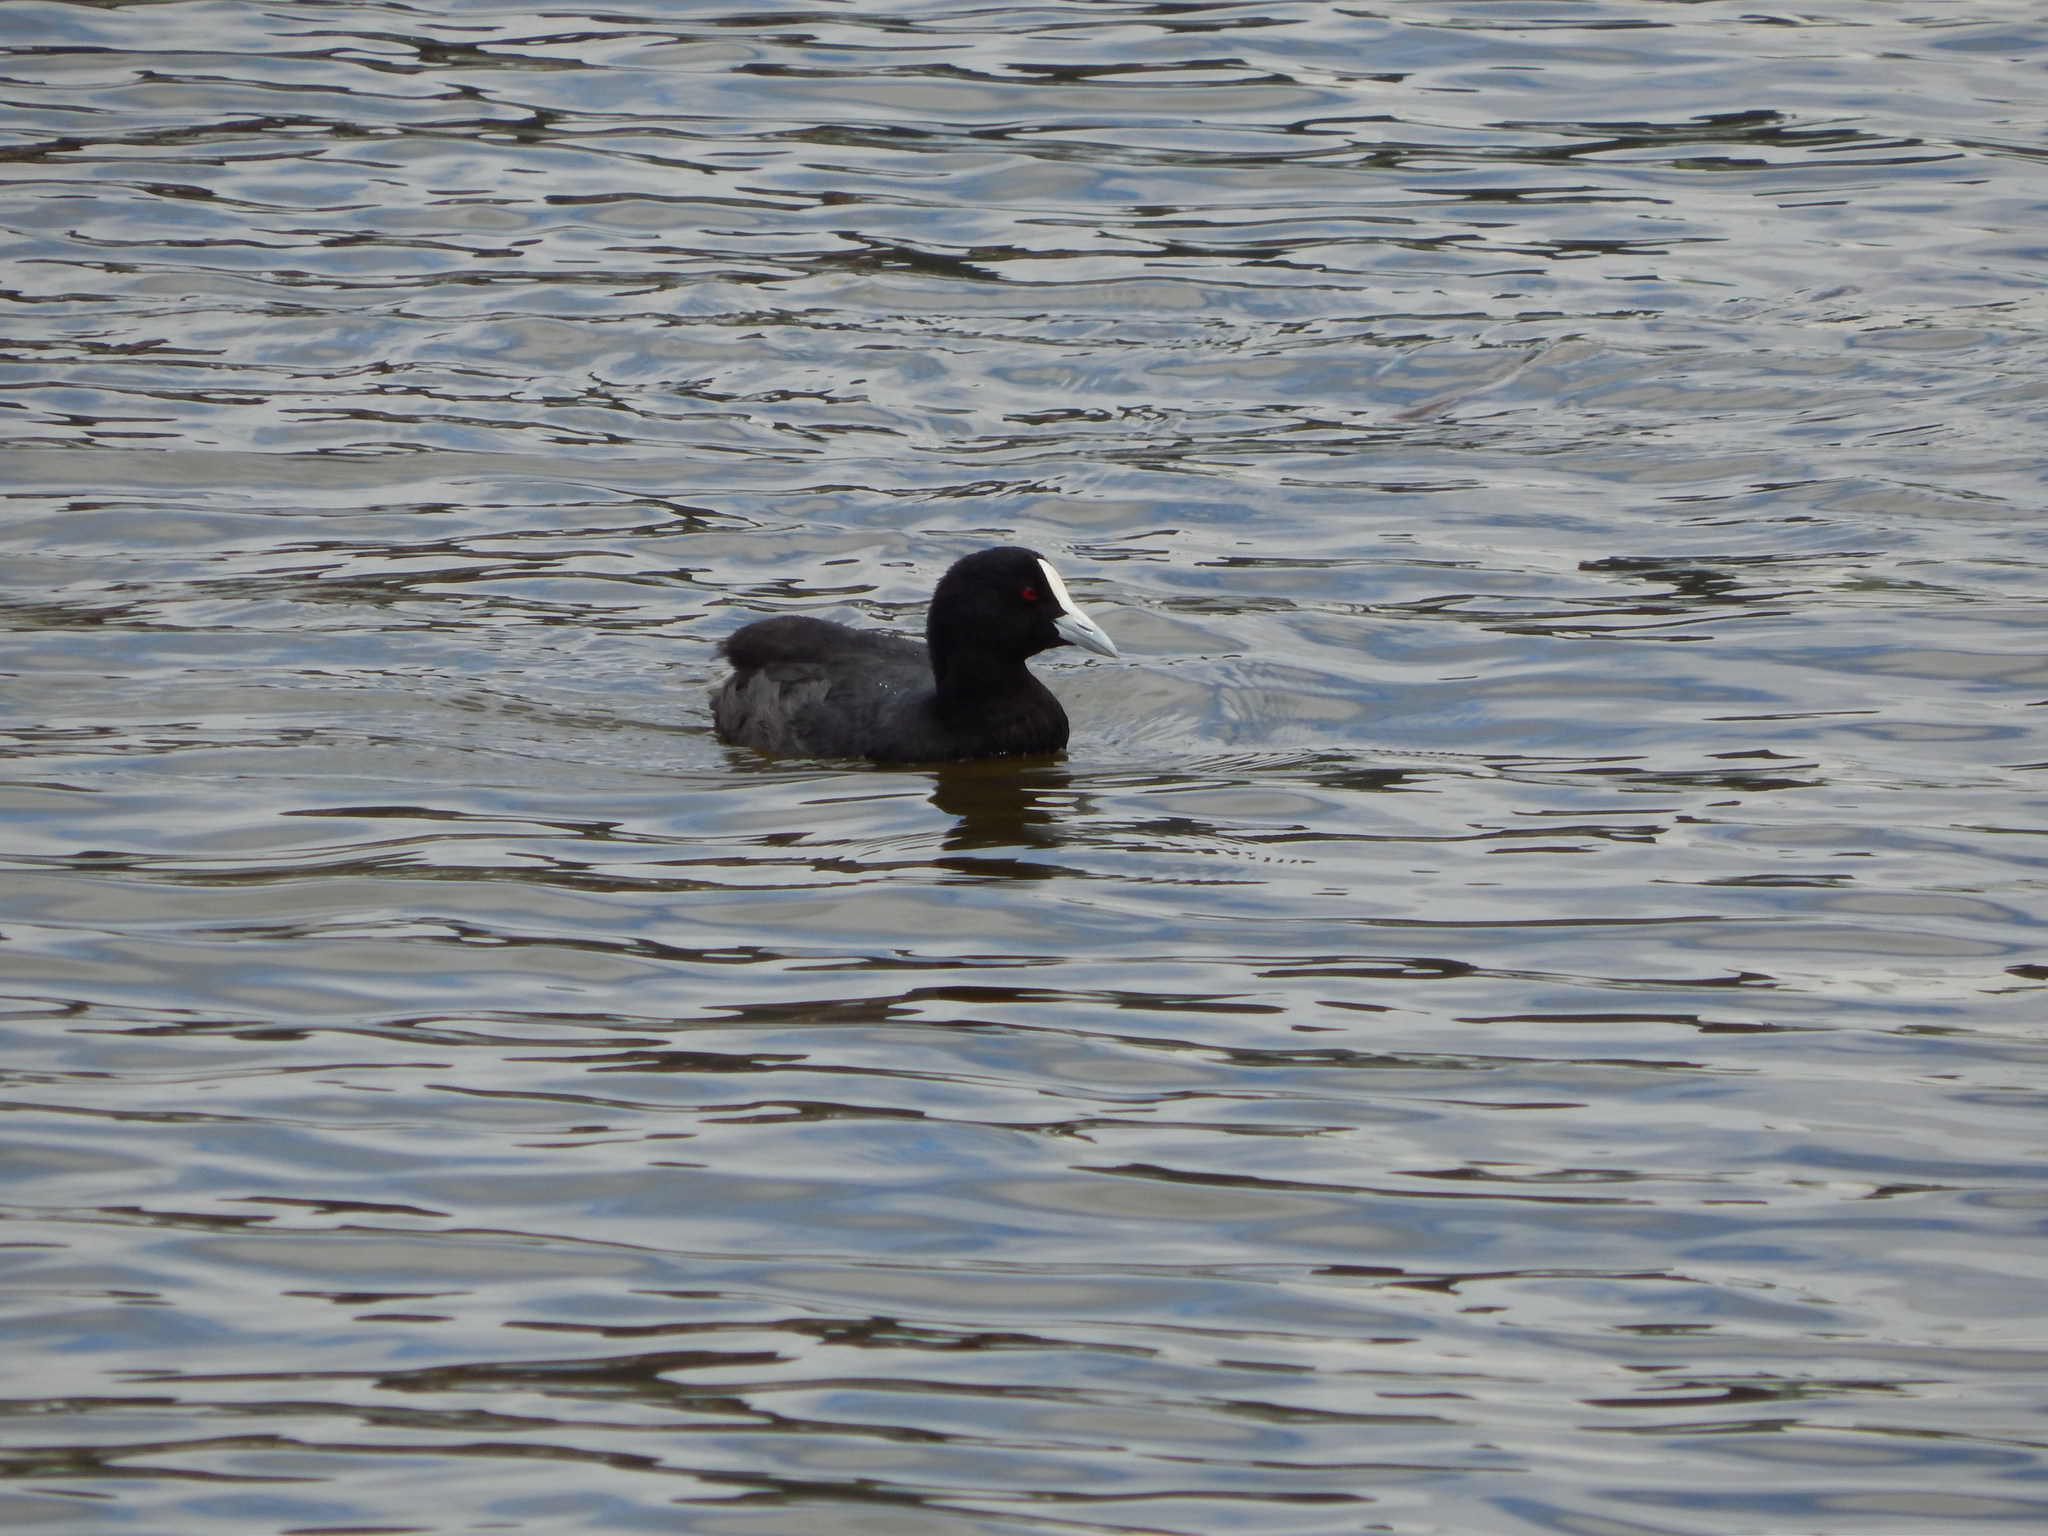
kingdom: Animalia
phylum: Chordata
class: Aves
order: Gruiformes
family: Rallidae
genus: Fulica
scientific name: Fulica atra
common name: Eurasian coot
